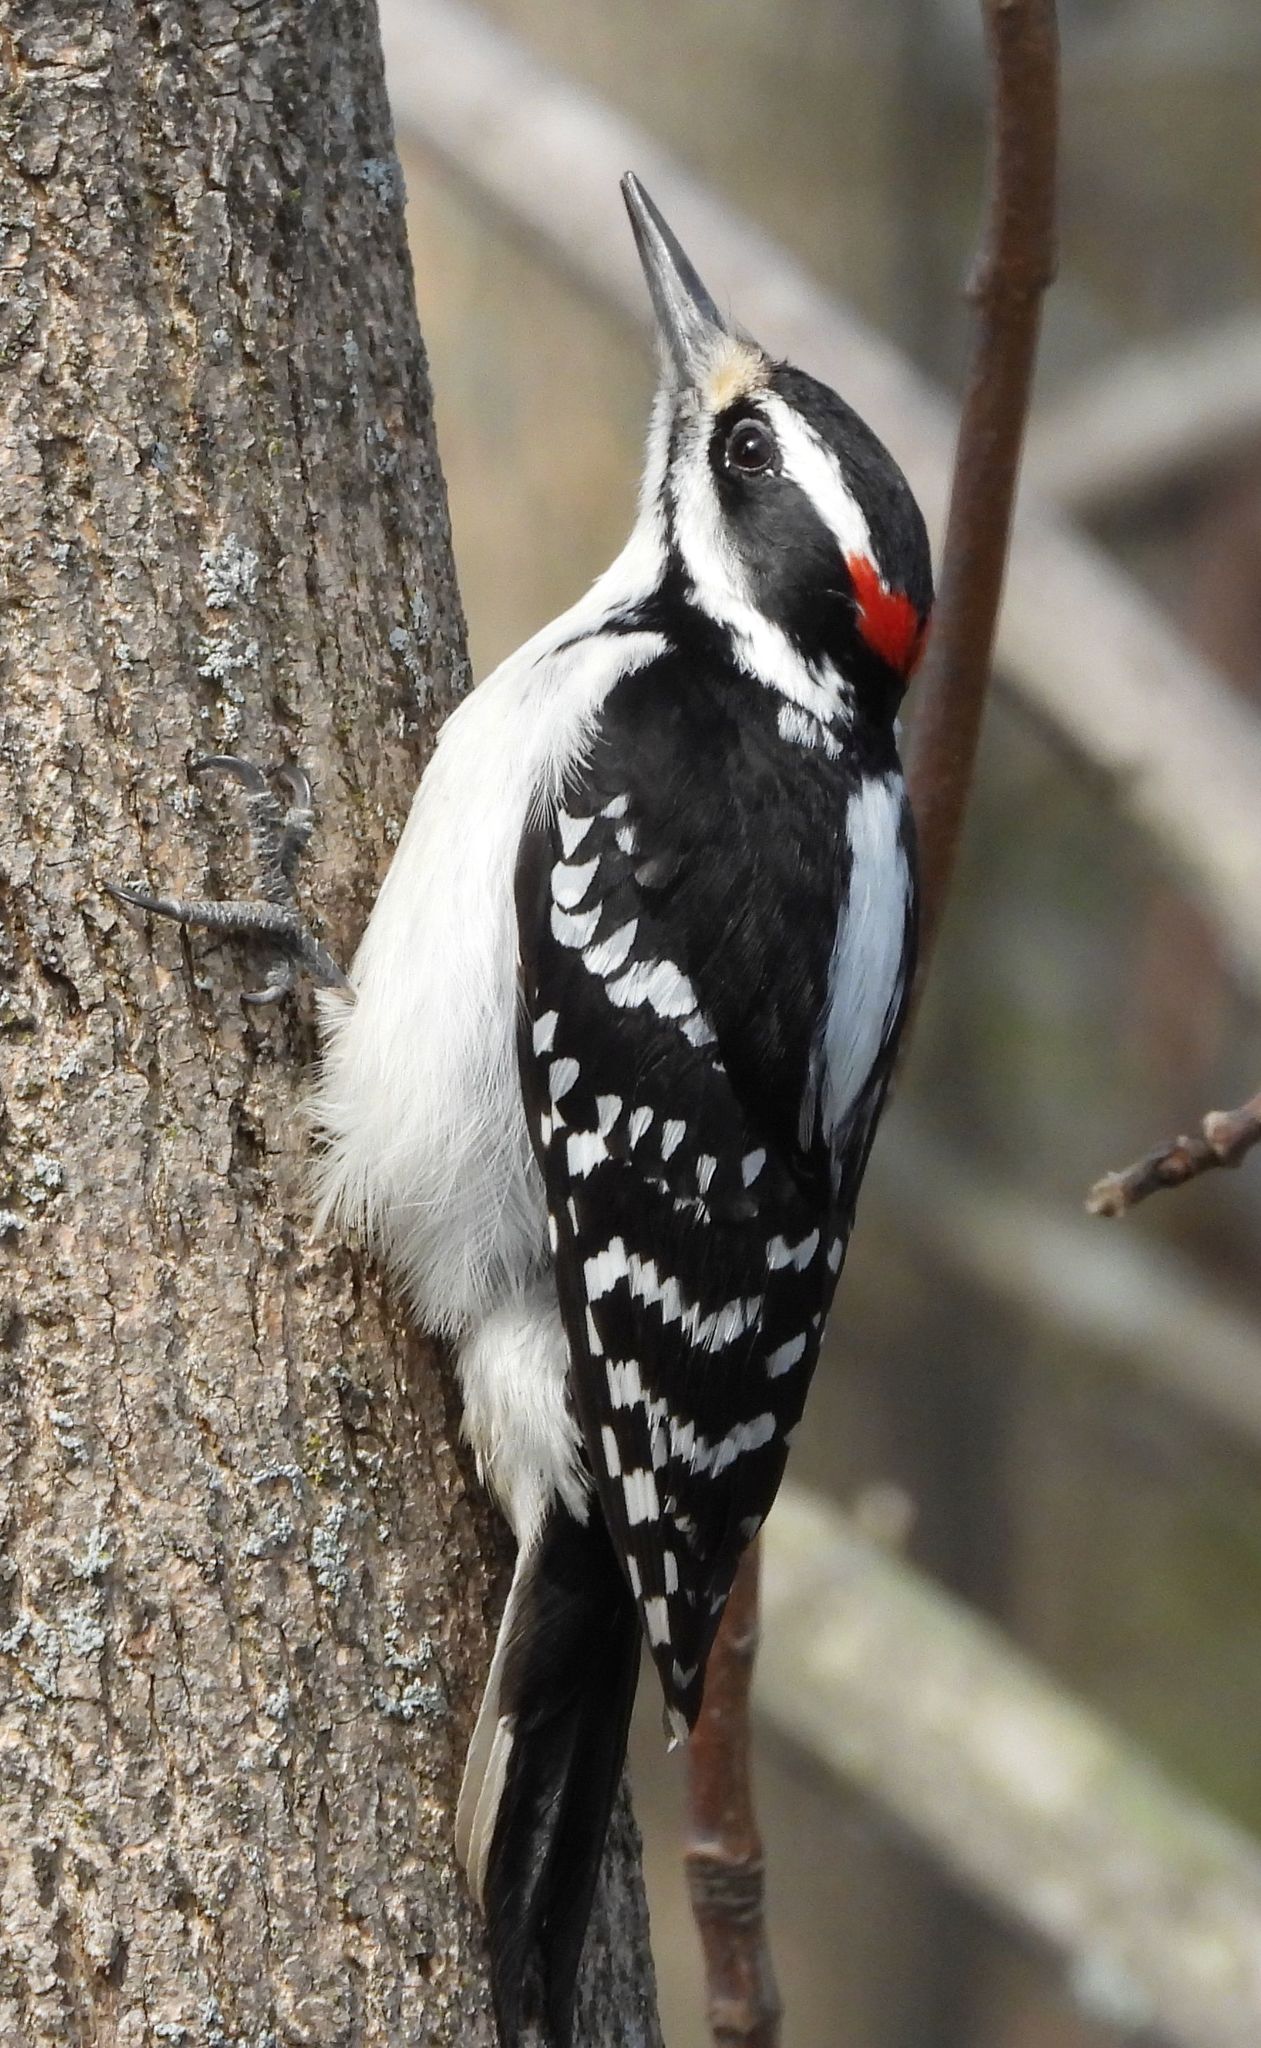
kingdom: Animalia
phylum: Chordata
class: Aves
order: Piciformes
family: Picidae
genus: Leuconotopicus
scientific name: Leuconotopicus villosus
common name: Hairy woodpecker
